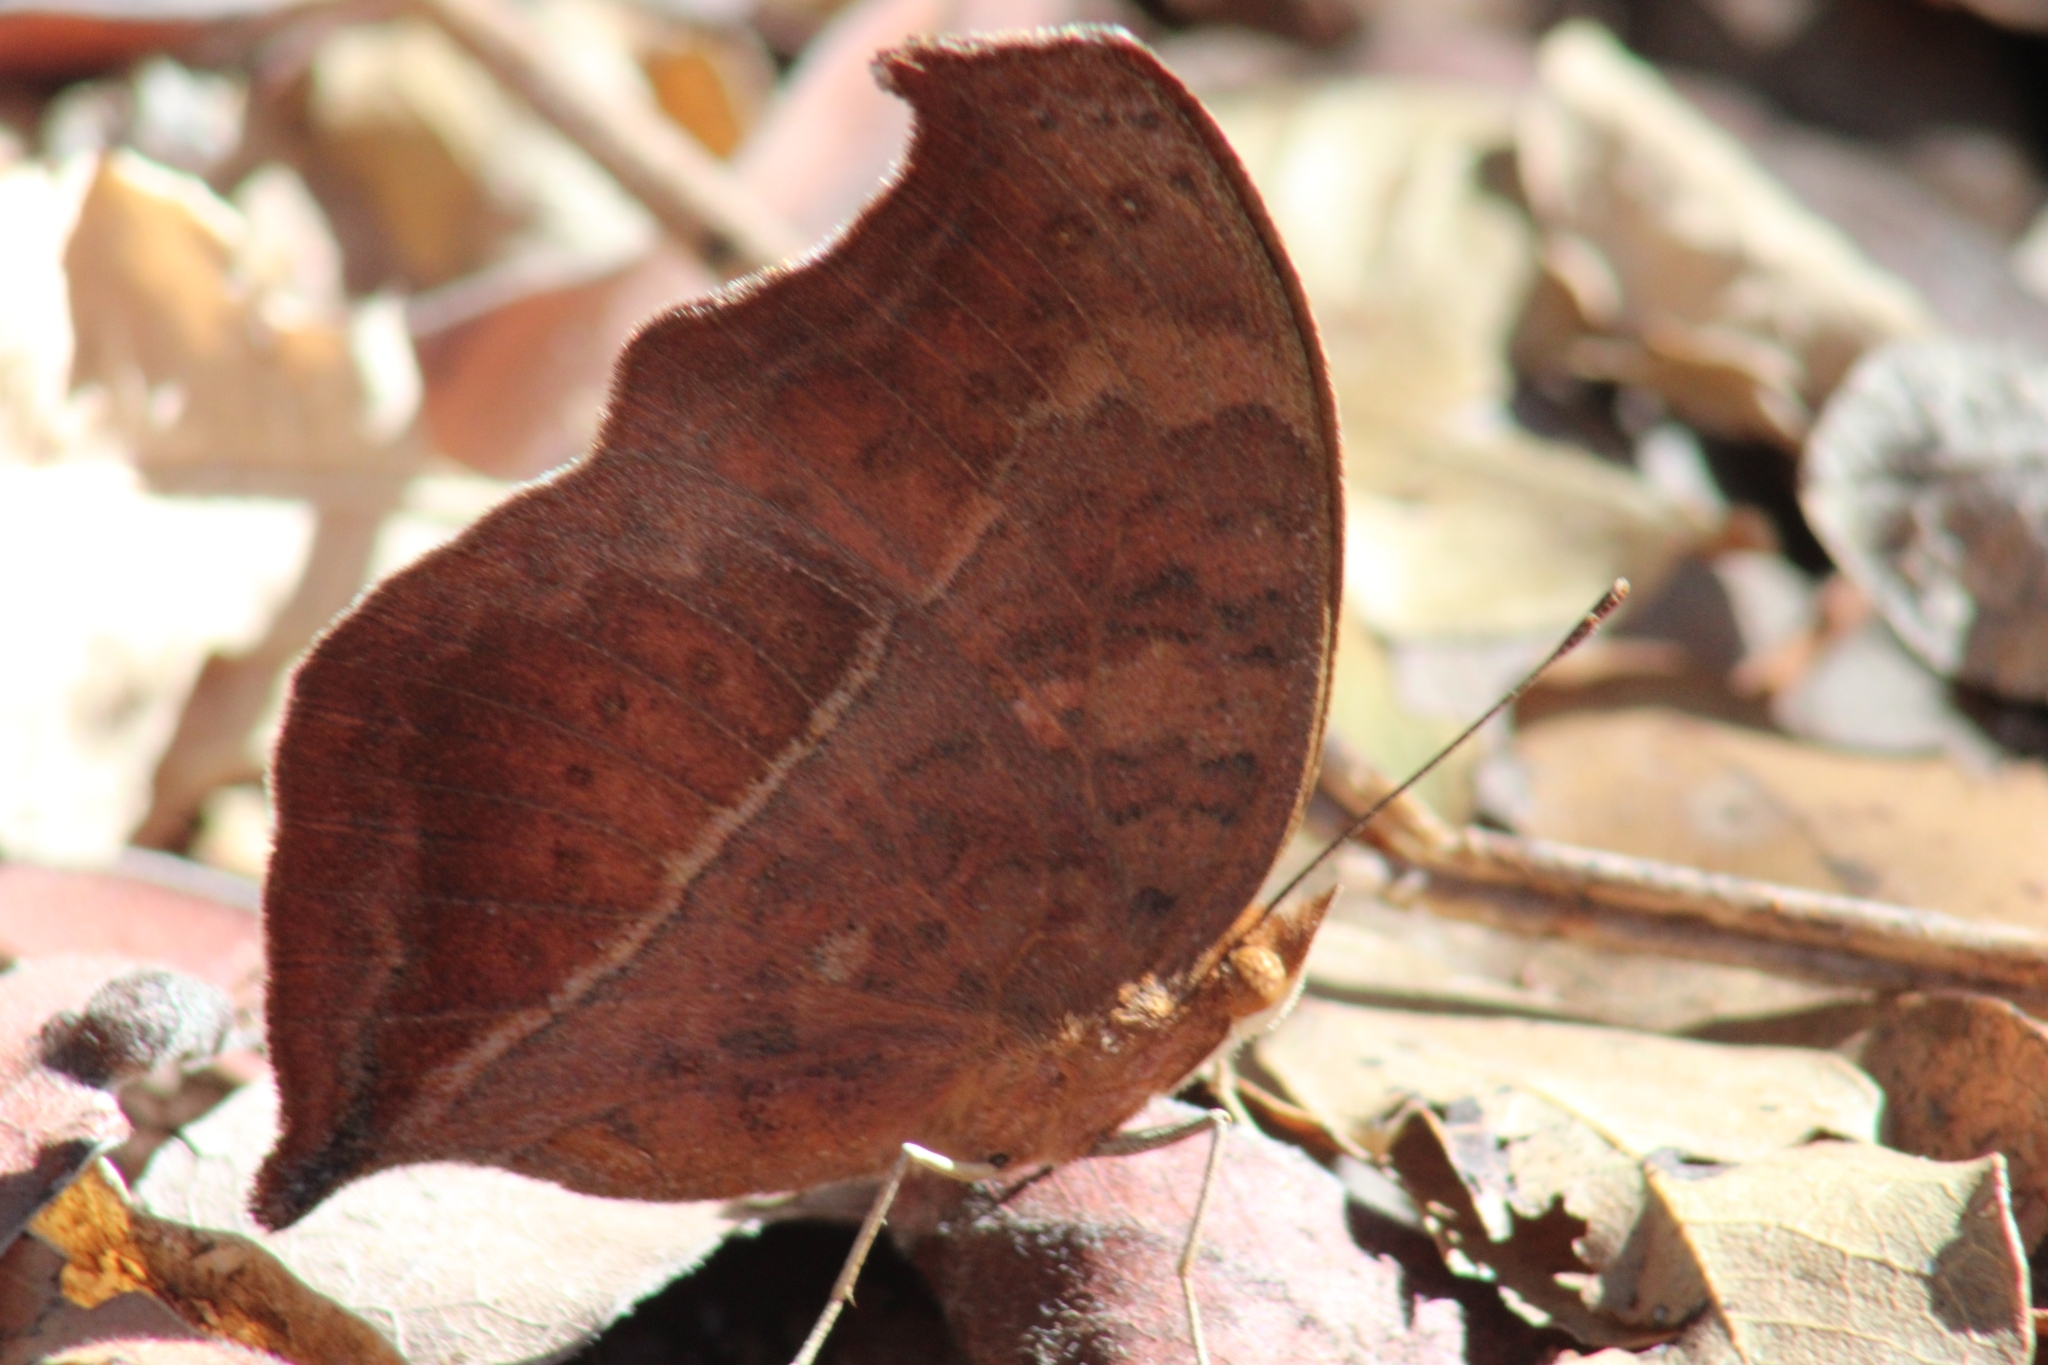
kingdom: Animalia
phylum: Arthropoda
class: Insecta
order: Lepidoptera
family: Nymphalidae
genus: Junonia
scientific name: Junonia antilope
